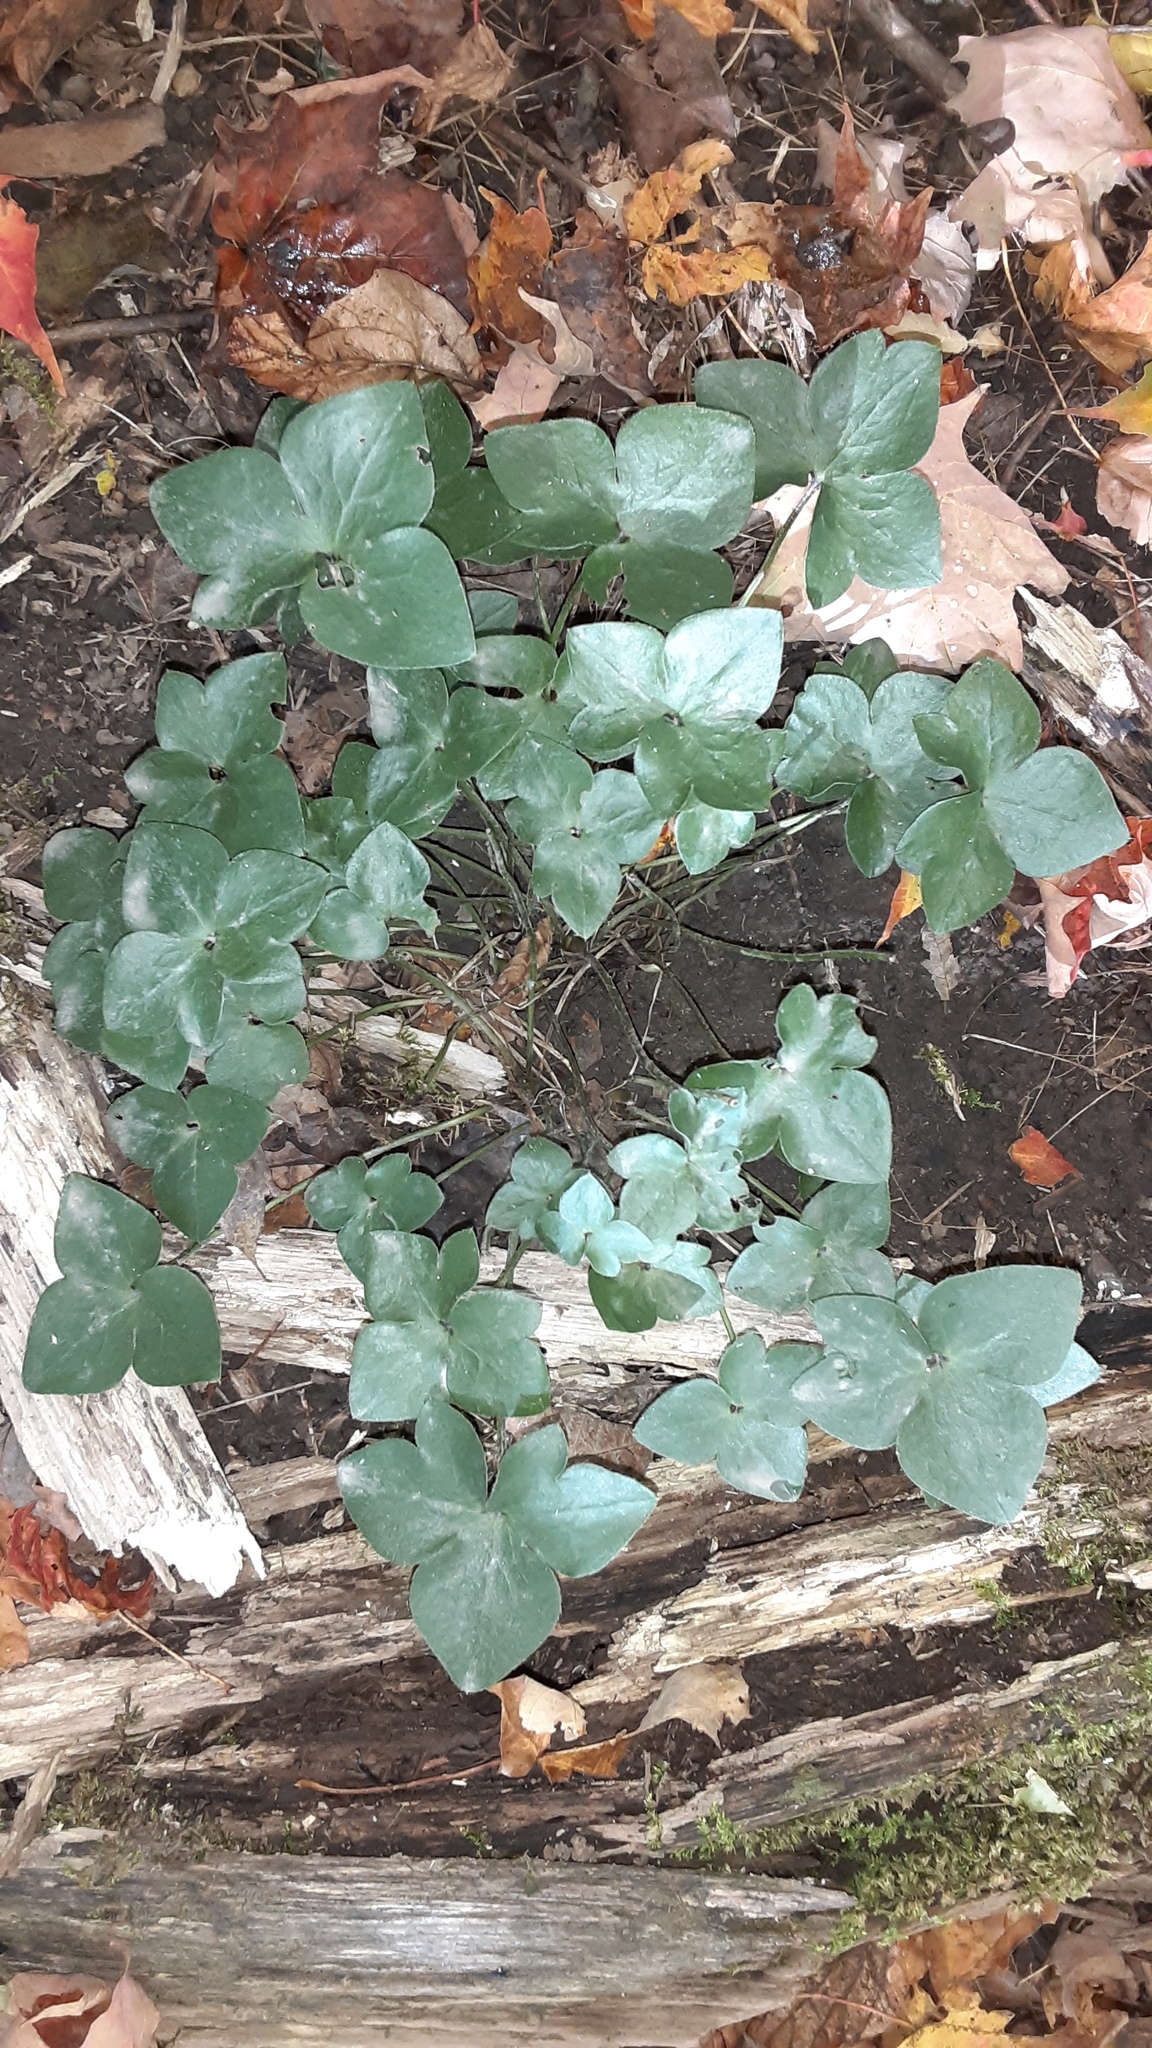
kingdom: Plantae
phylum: Tracheophyta
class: Magnoliopsida
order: Ranunculales
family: Ranunculaceae
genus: Hepatica
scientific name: Hepatica acutiloba
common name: Sharp-lobed hepatica
